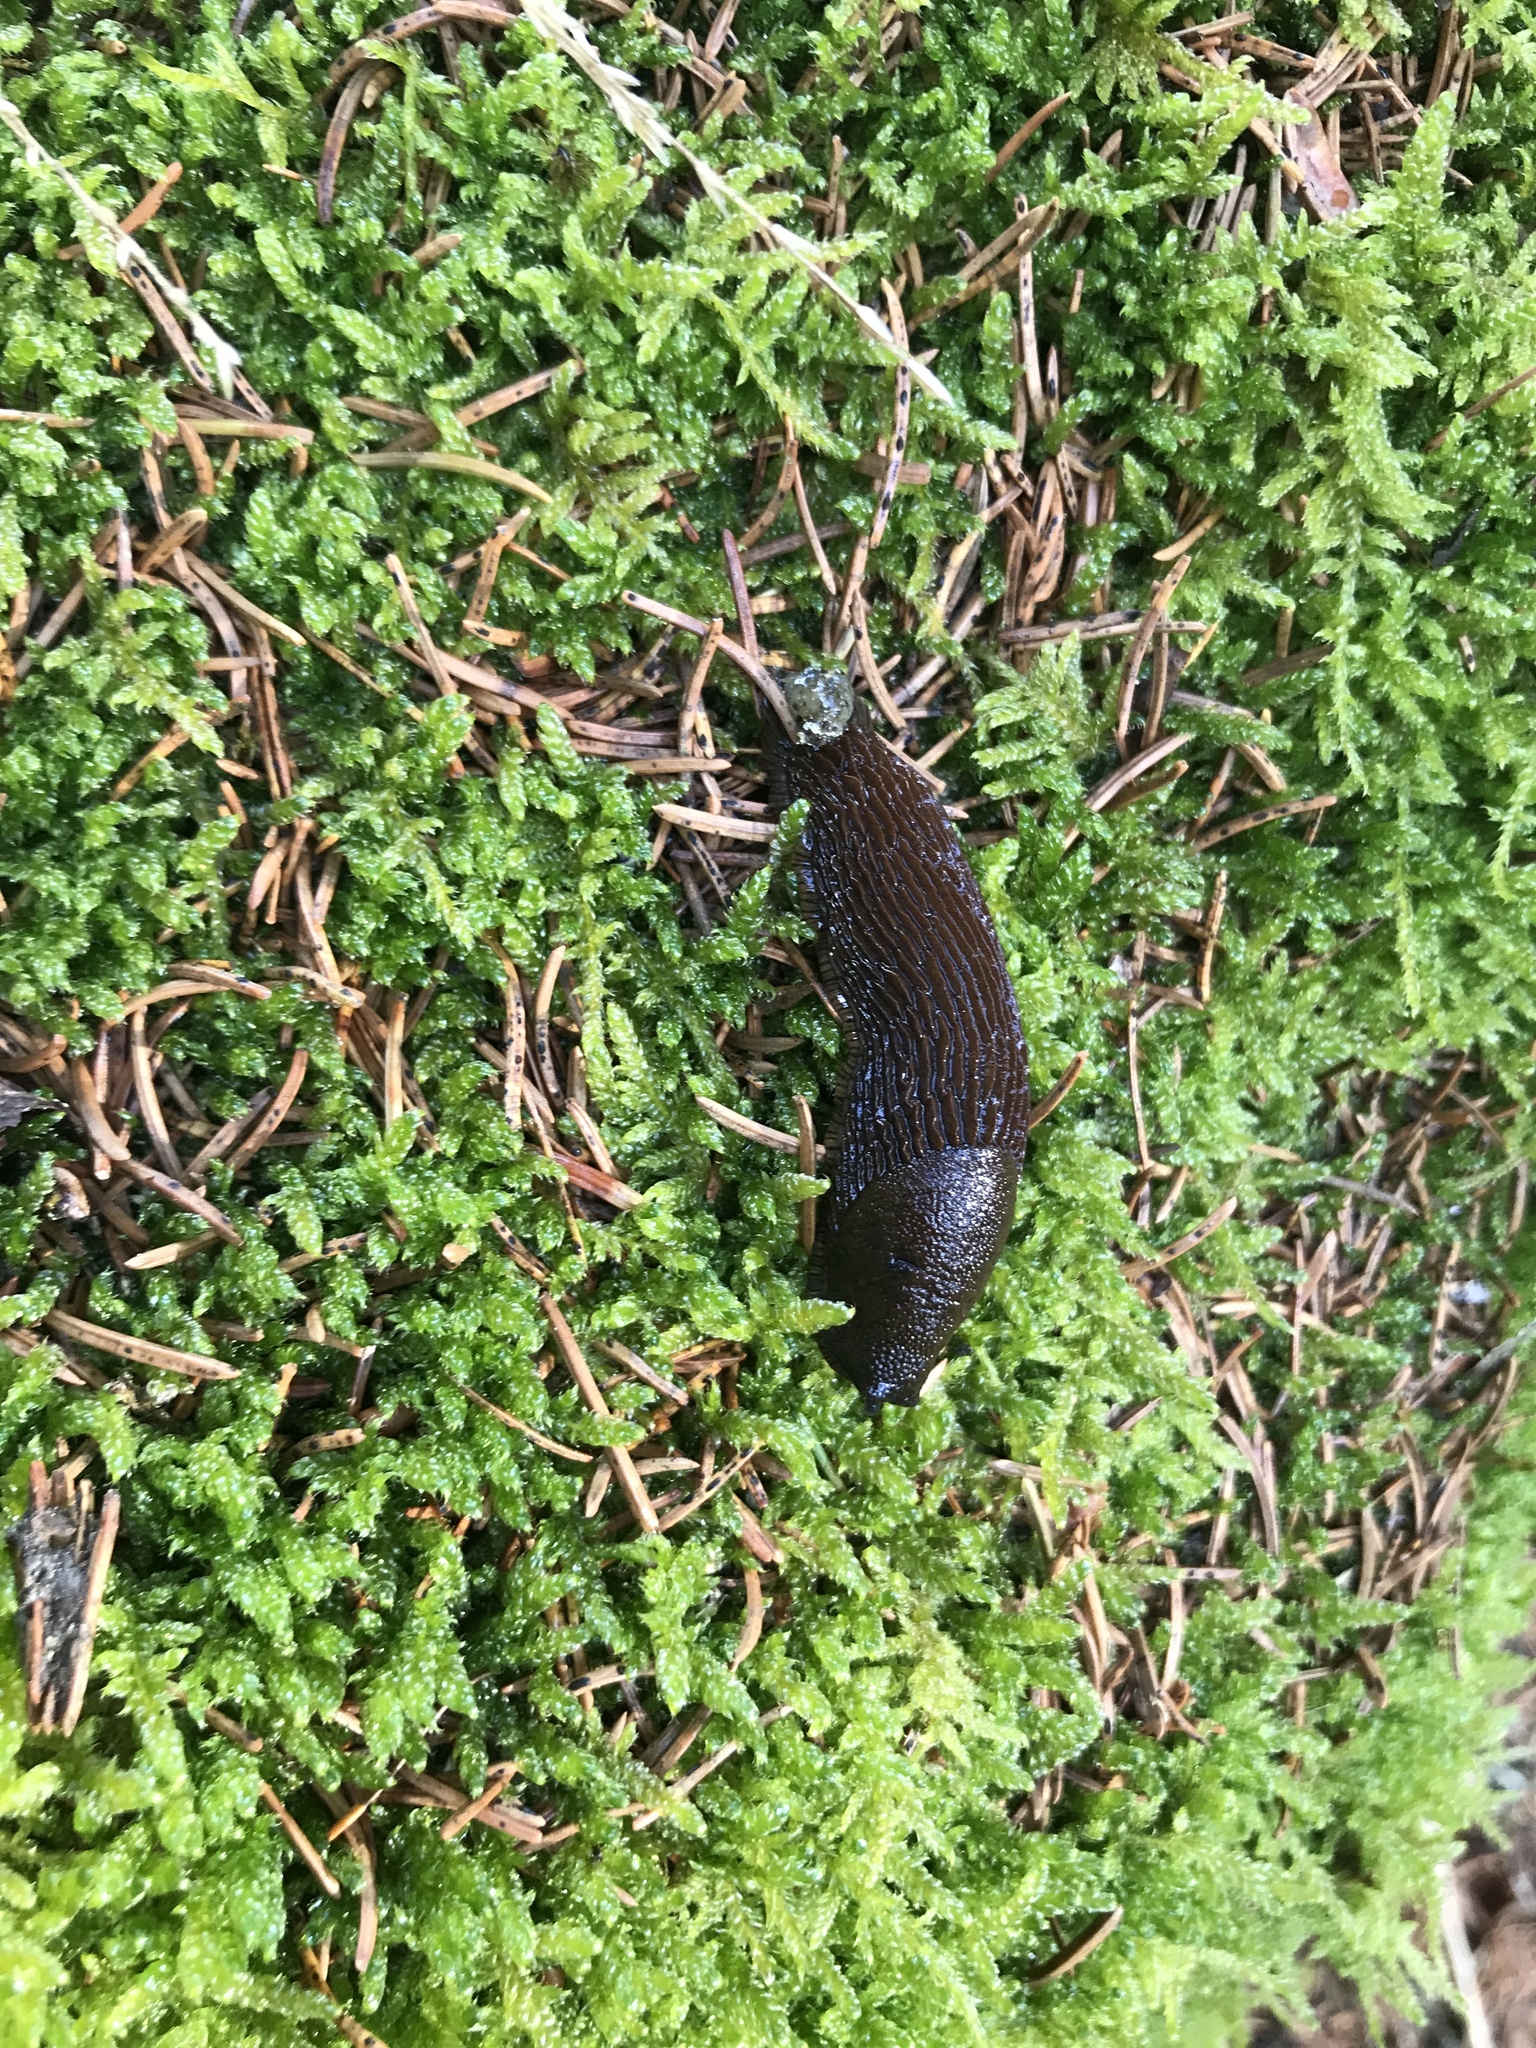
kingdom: Animalia
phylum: Mollusca
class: Gastropoda
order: Stylommatophora
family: Arionidae
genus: Arion
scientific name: Arion
